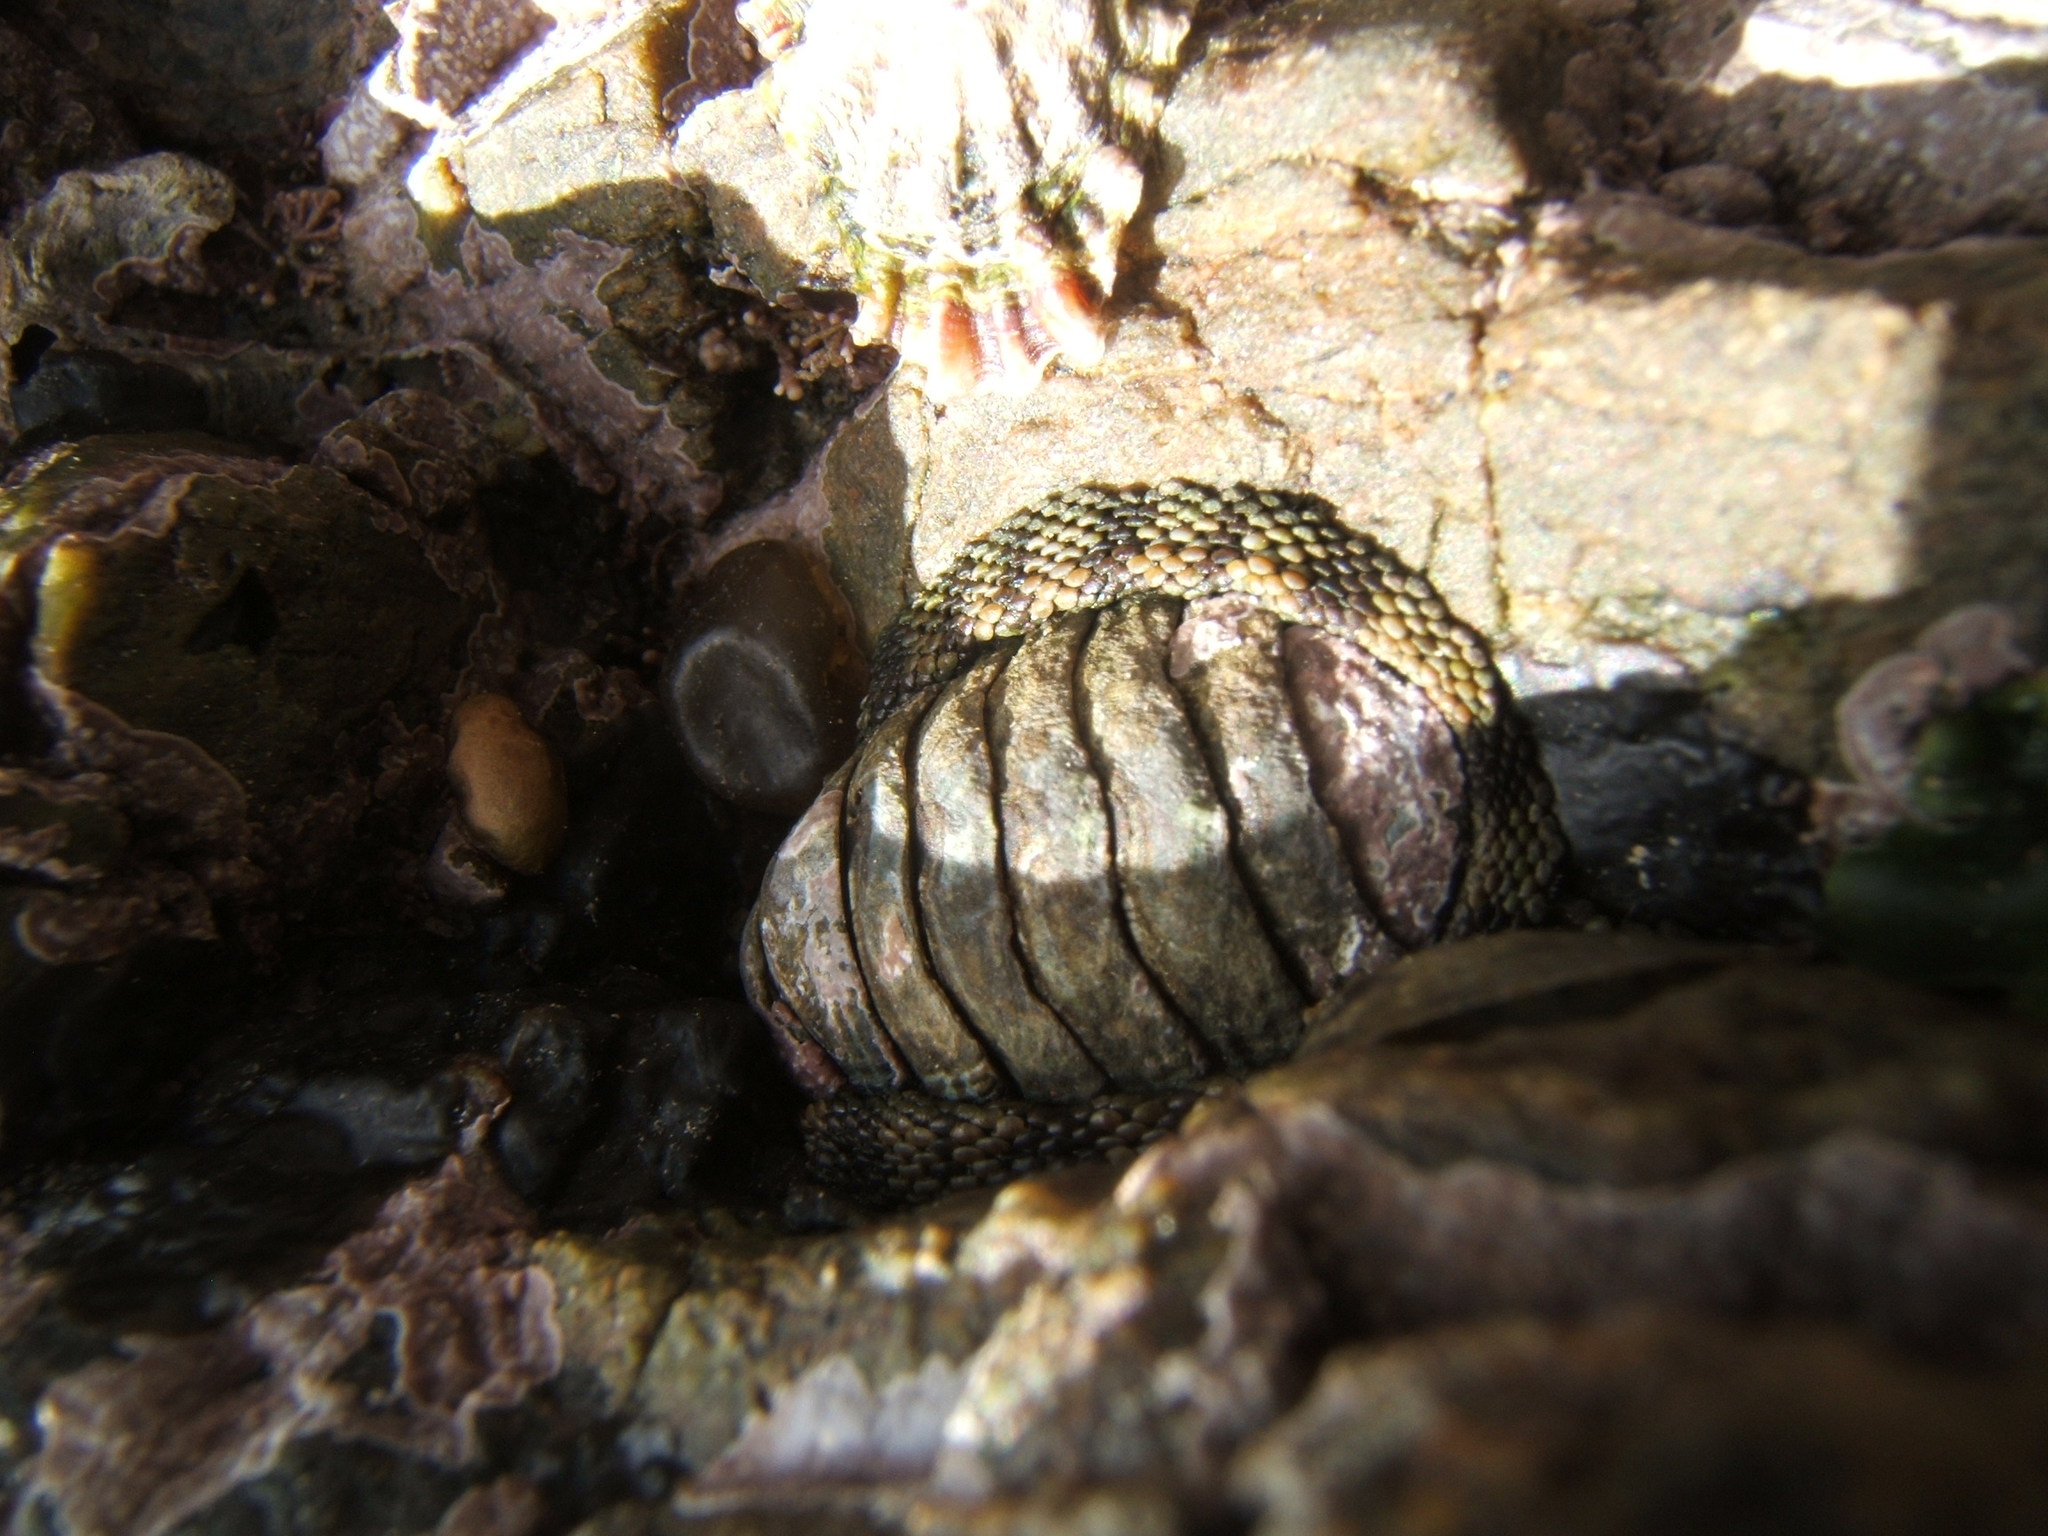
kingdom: Animalia
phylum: Mollusca
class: Polyplacophora
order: Chitonida
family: Chitonidae
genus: Sypharochiton
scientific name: Sypharochiton pelliserpentis
